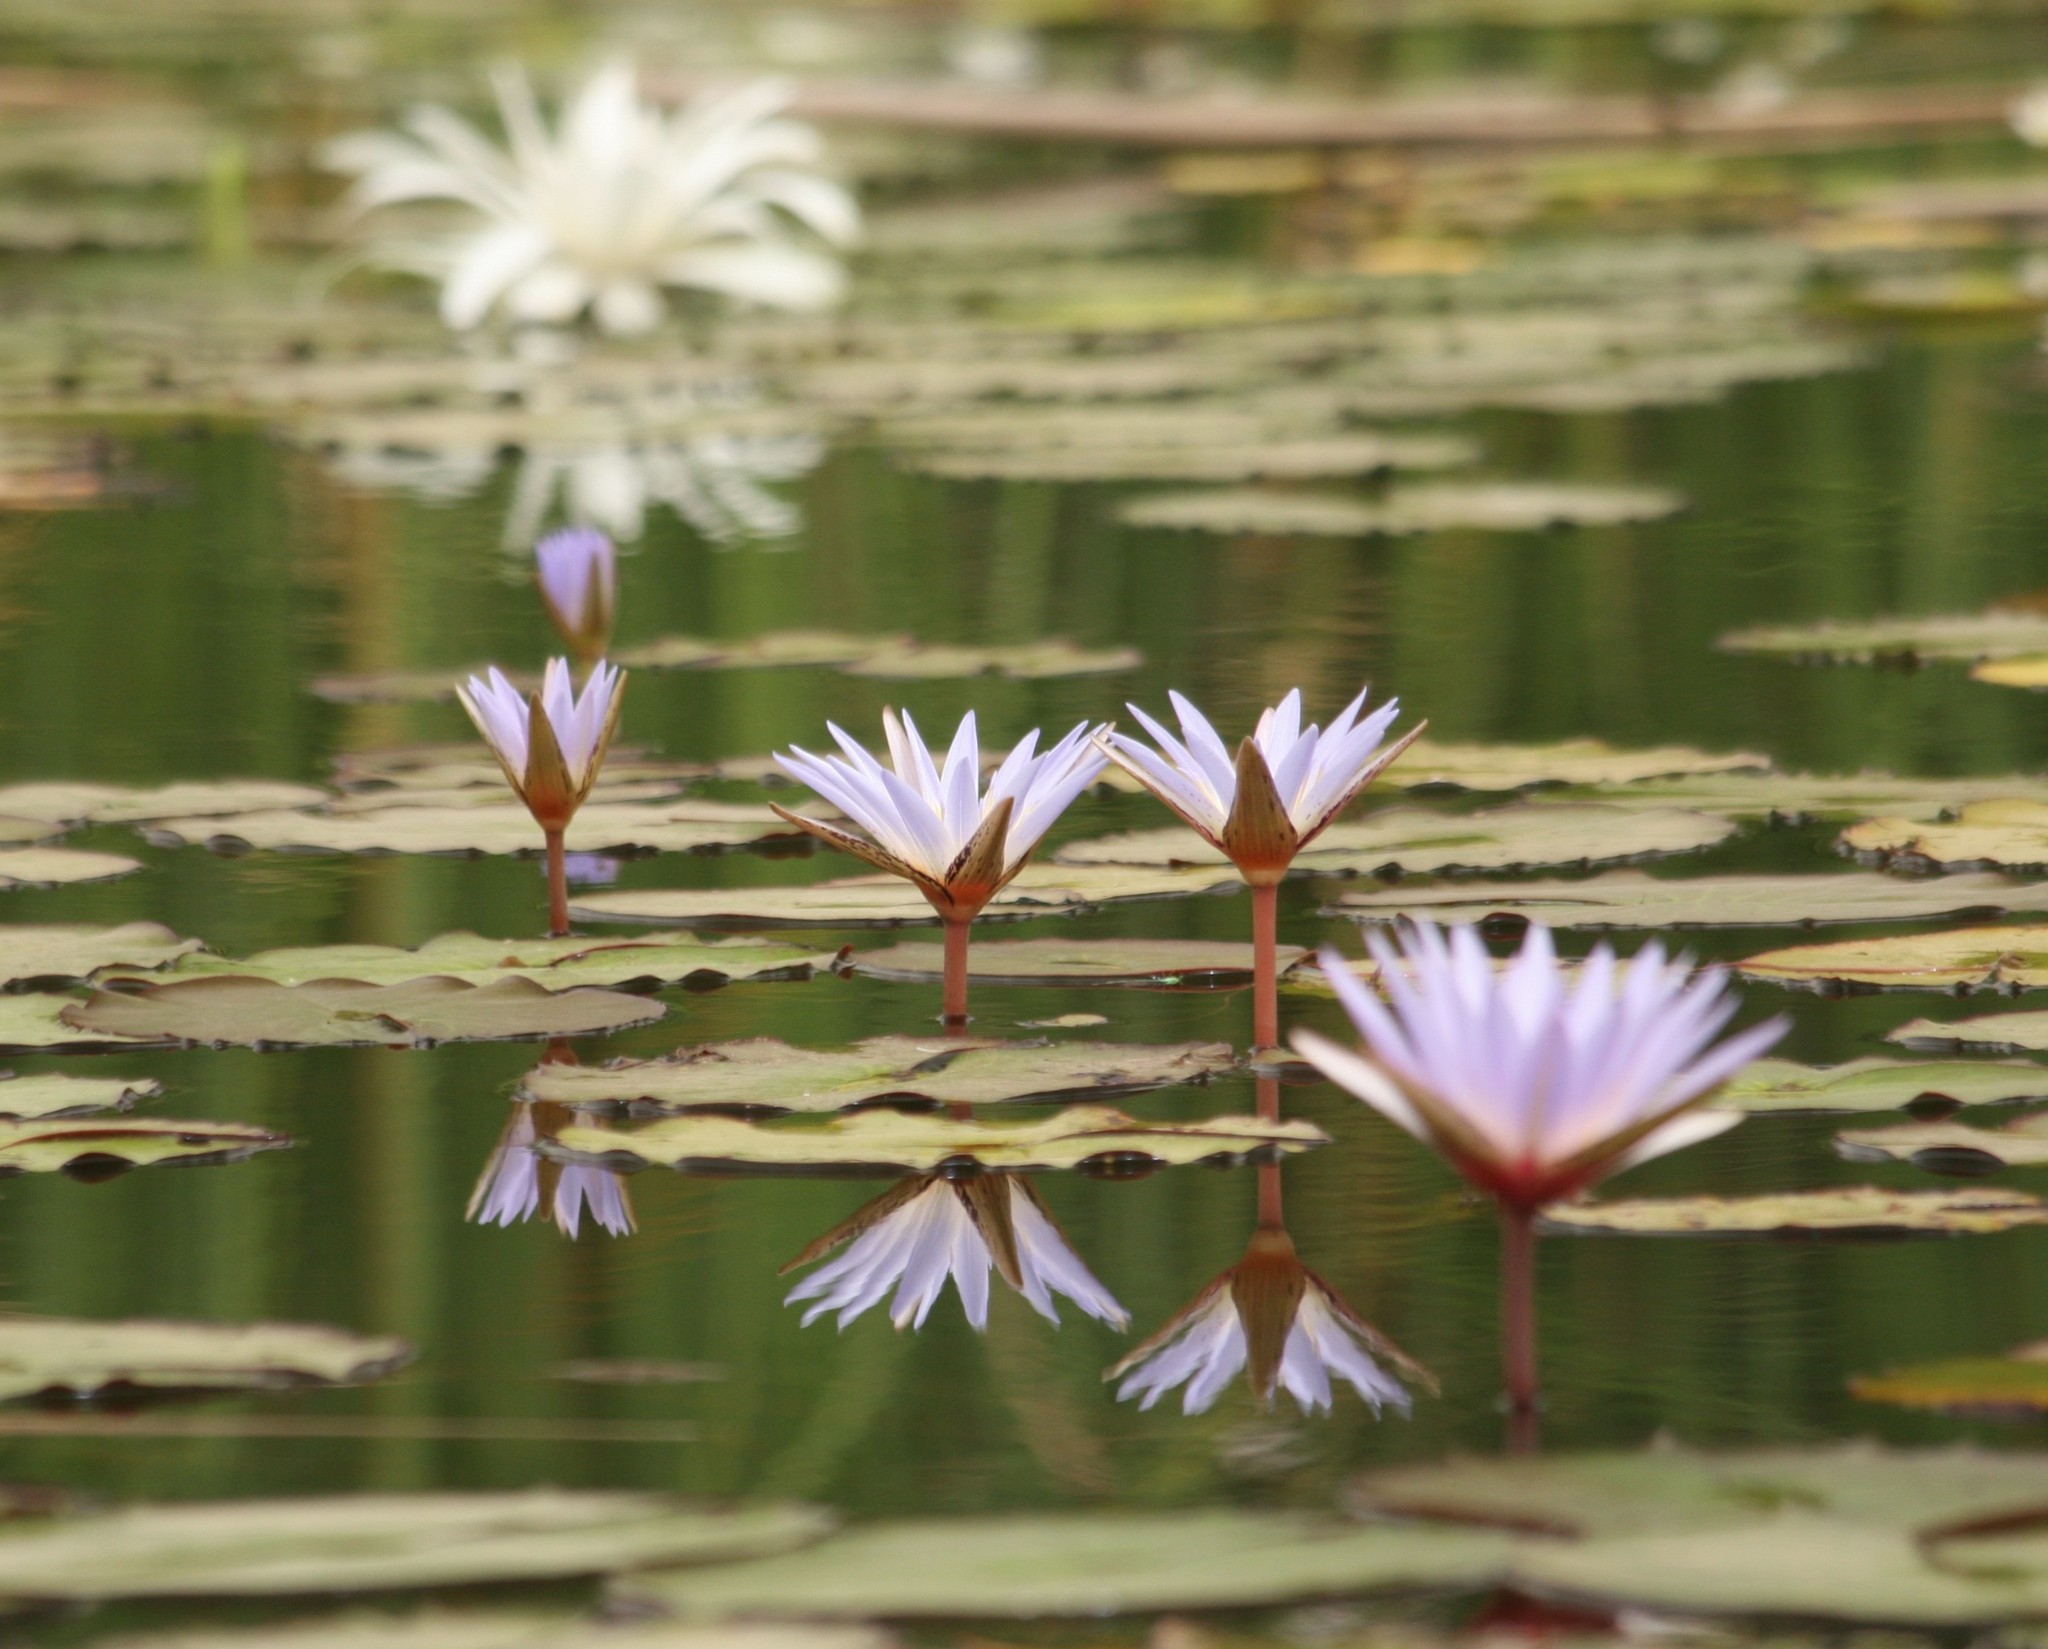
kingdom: Plantae
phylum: Tracheophyta
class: Magnoliopsida
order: Nymphaeales
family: Nymphaeaceae
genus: Nymphaea
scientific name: Nymphaea micrantha
